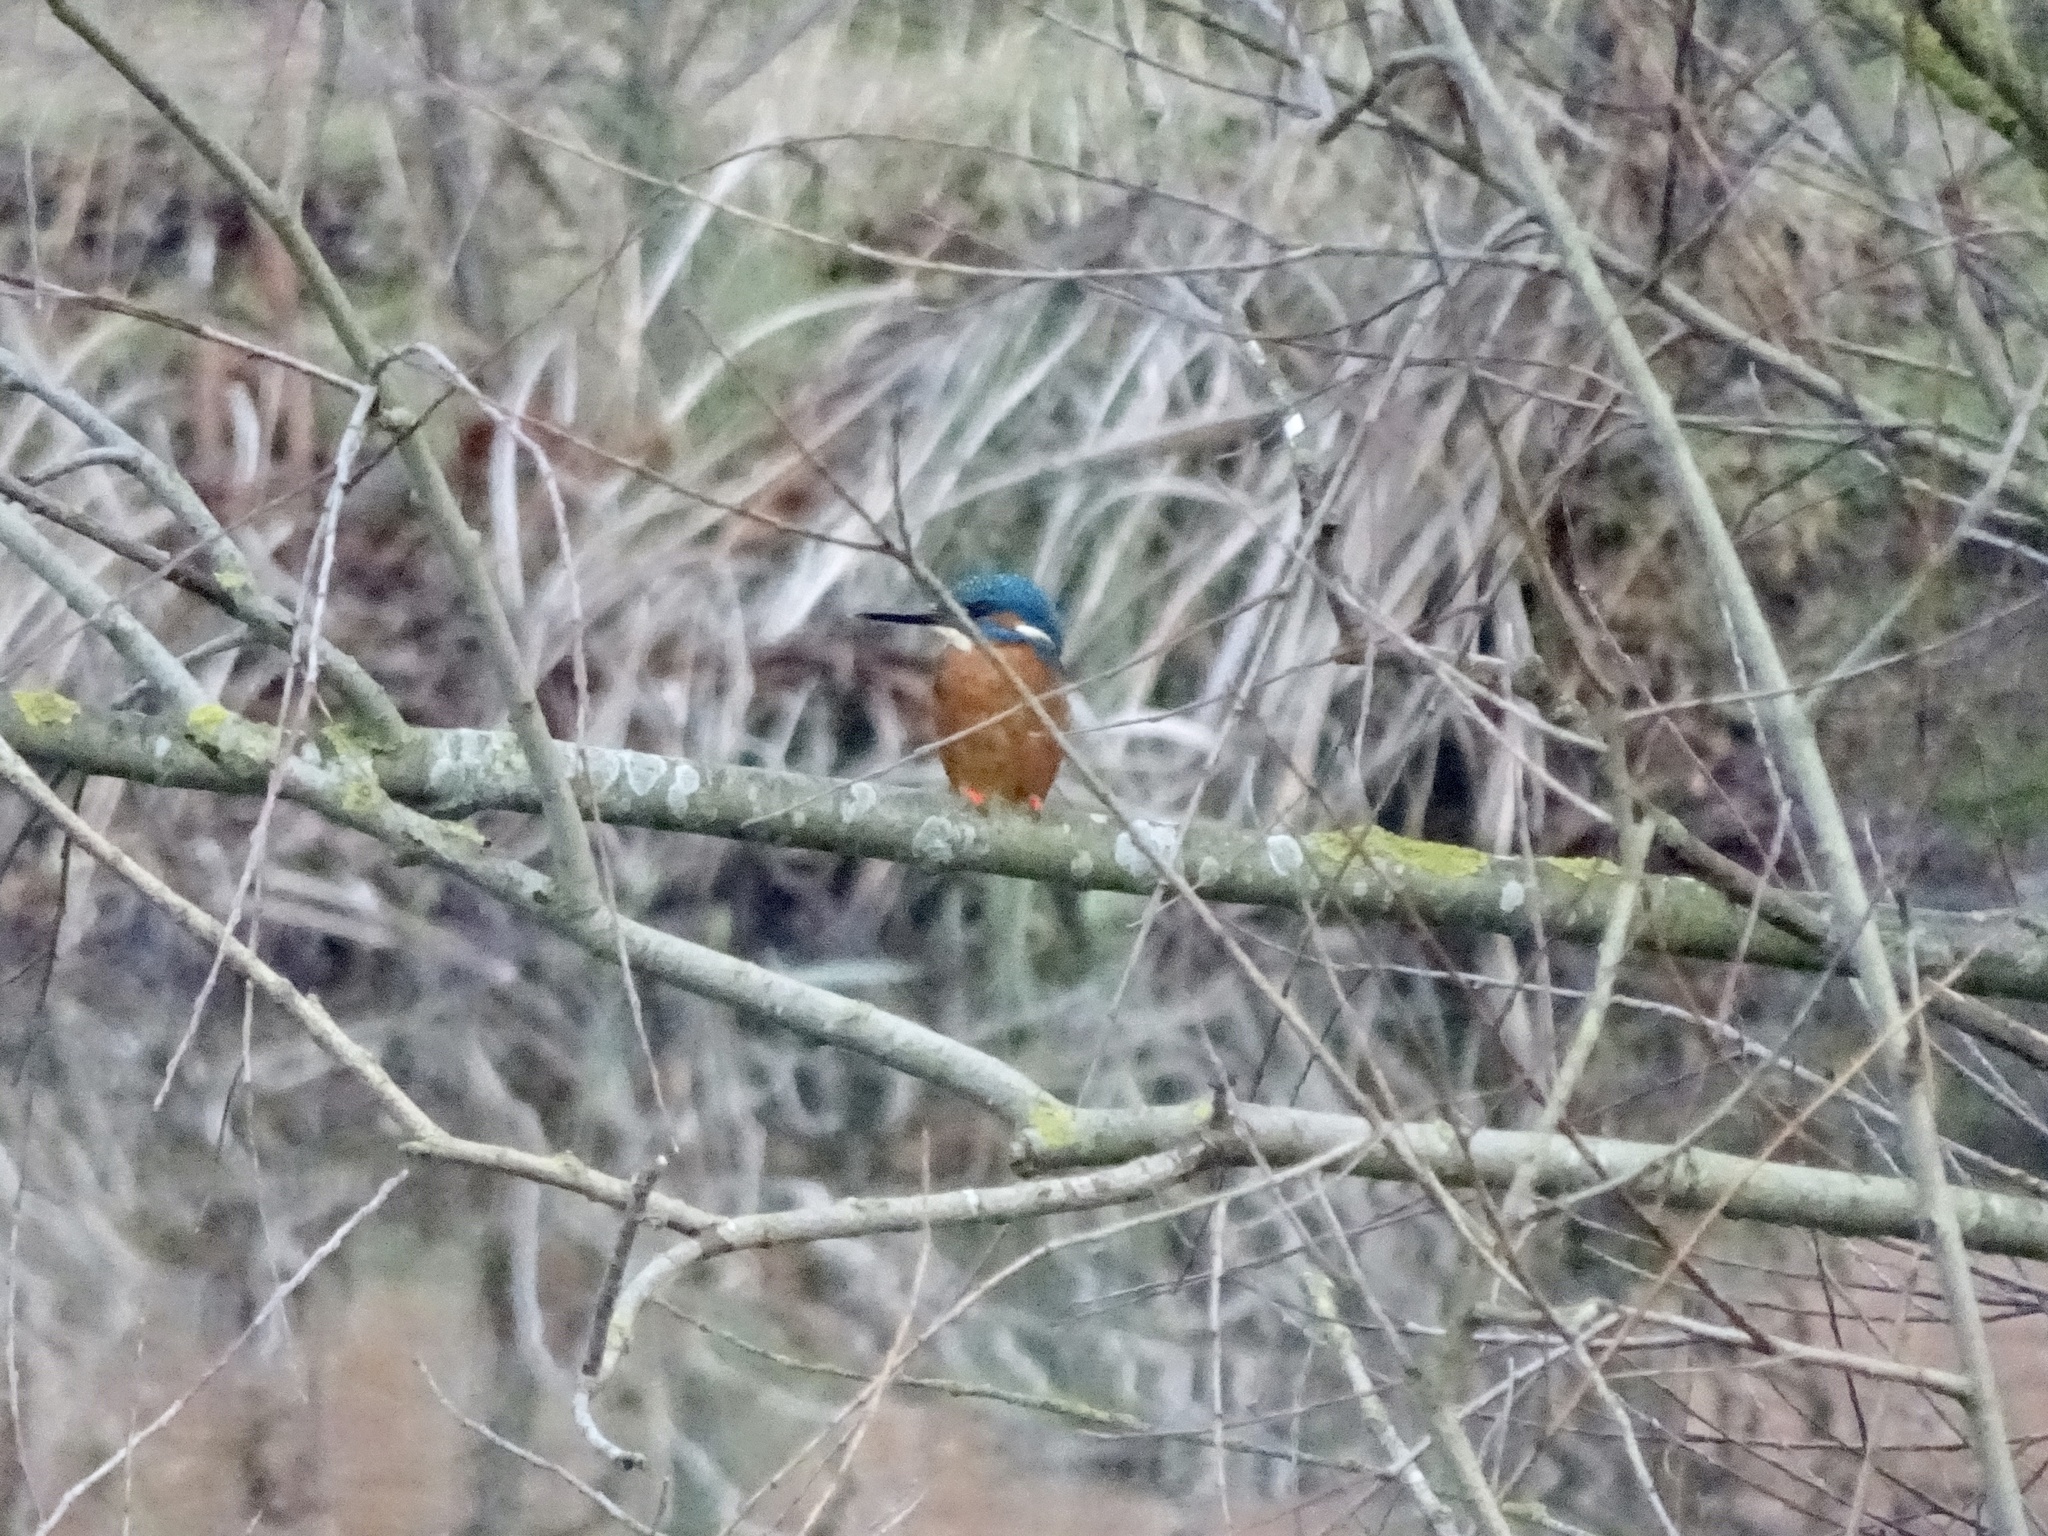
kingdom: Animalia
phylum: Chordata
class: Aves
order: Coraciiformes
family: Alcedinidae
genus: Alcedo
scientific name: Alcedo atthis
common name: Common kingfisher
